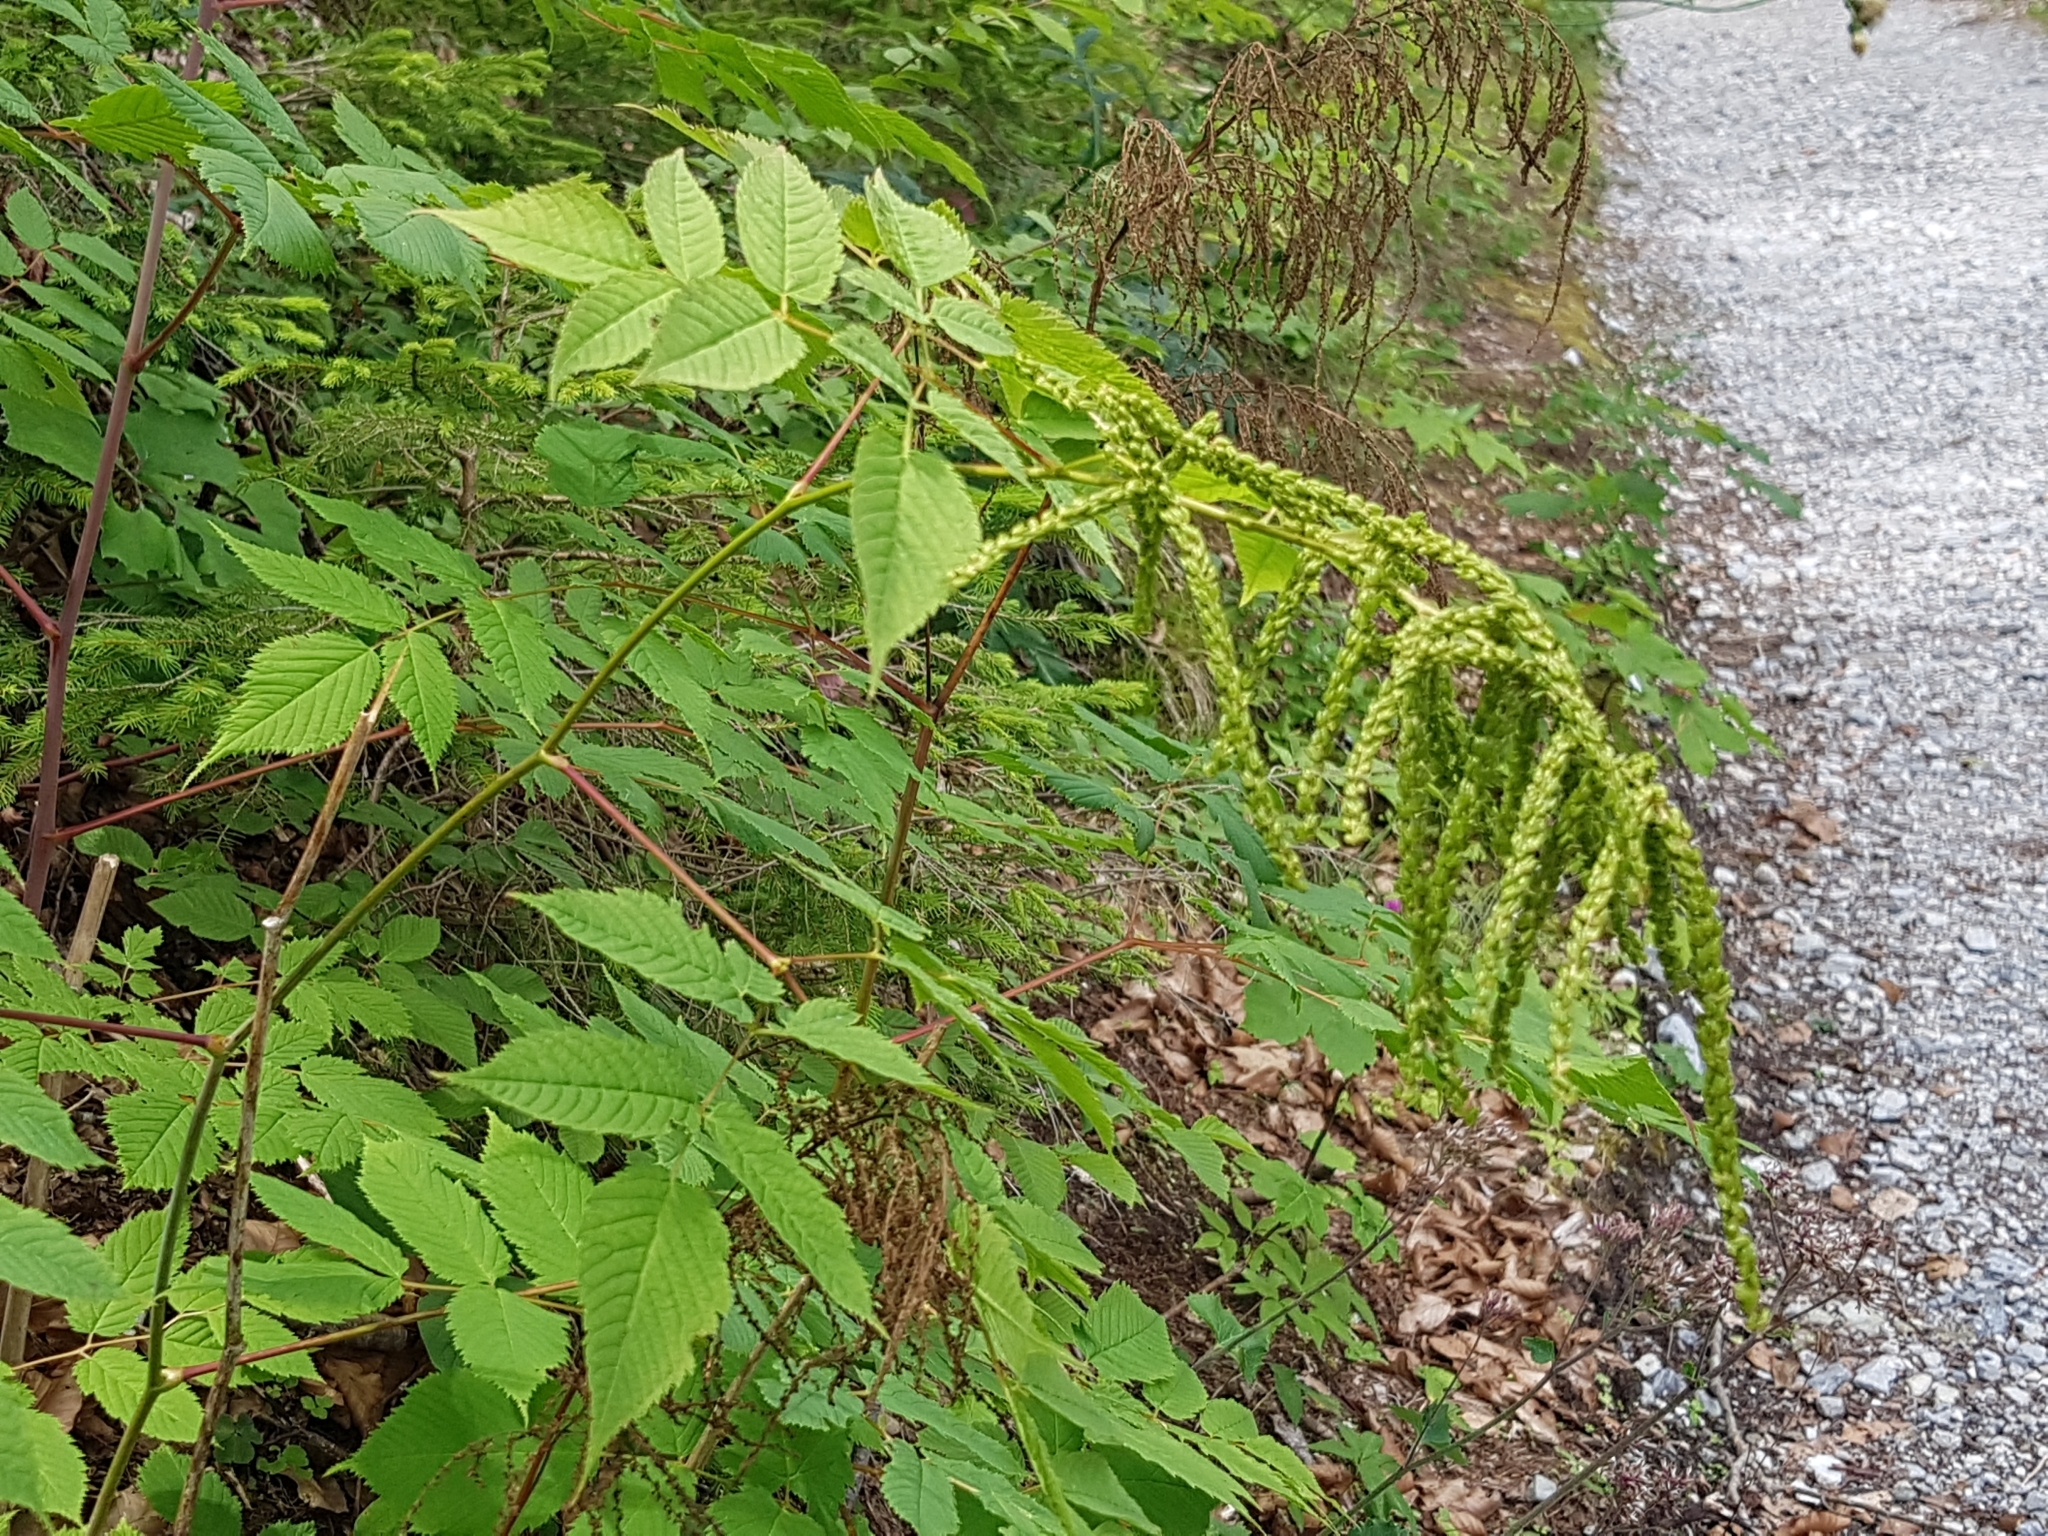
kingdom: Plantae
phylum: Tracheophyta
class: Magnoliopsida
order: Rosales
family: Rosaceae
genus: Aruncus
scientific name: Aruncus dioicus
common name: Buck's-beard
